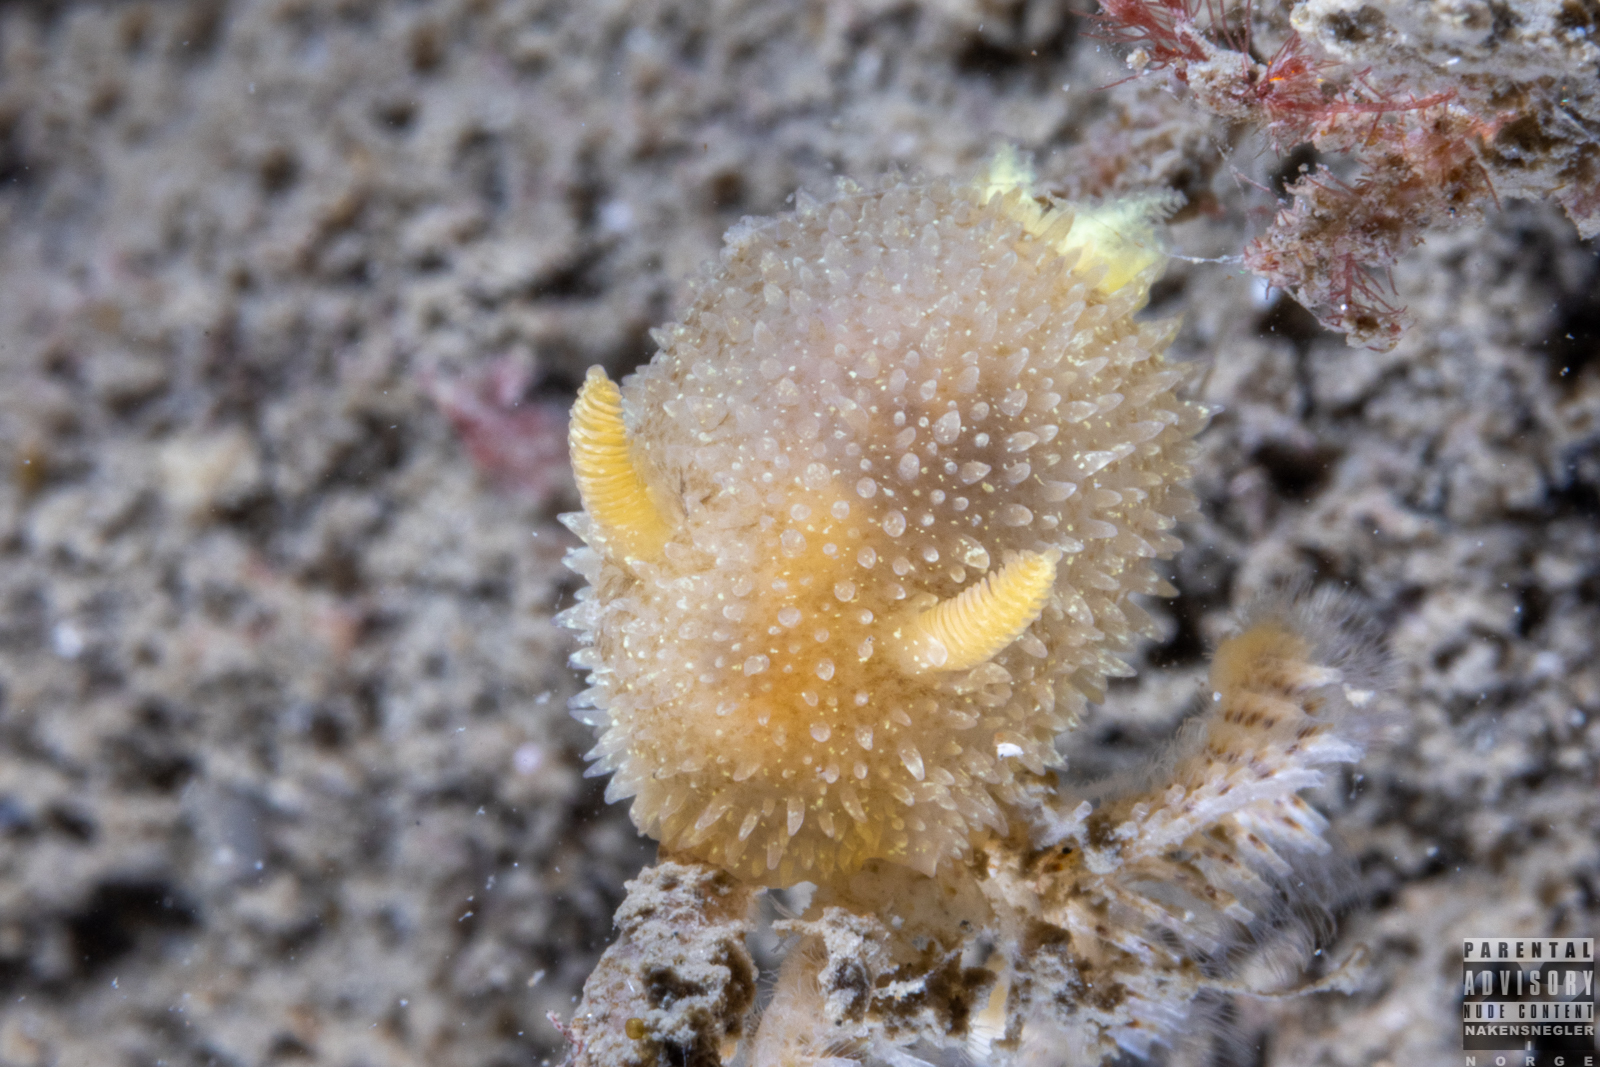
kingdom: Animalia
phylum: Mollusca
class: Gastropoda
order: Nudibranchia
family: Onchidorididae
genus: Acanthodoris
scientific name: Acanthodoris pilosa
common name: Hairy spiny doris
